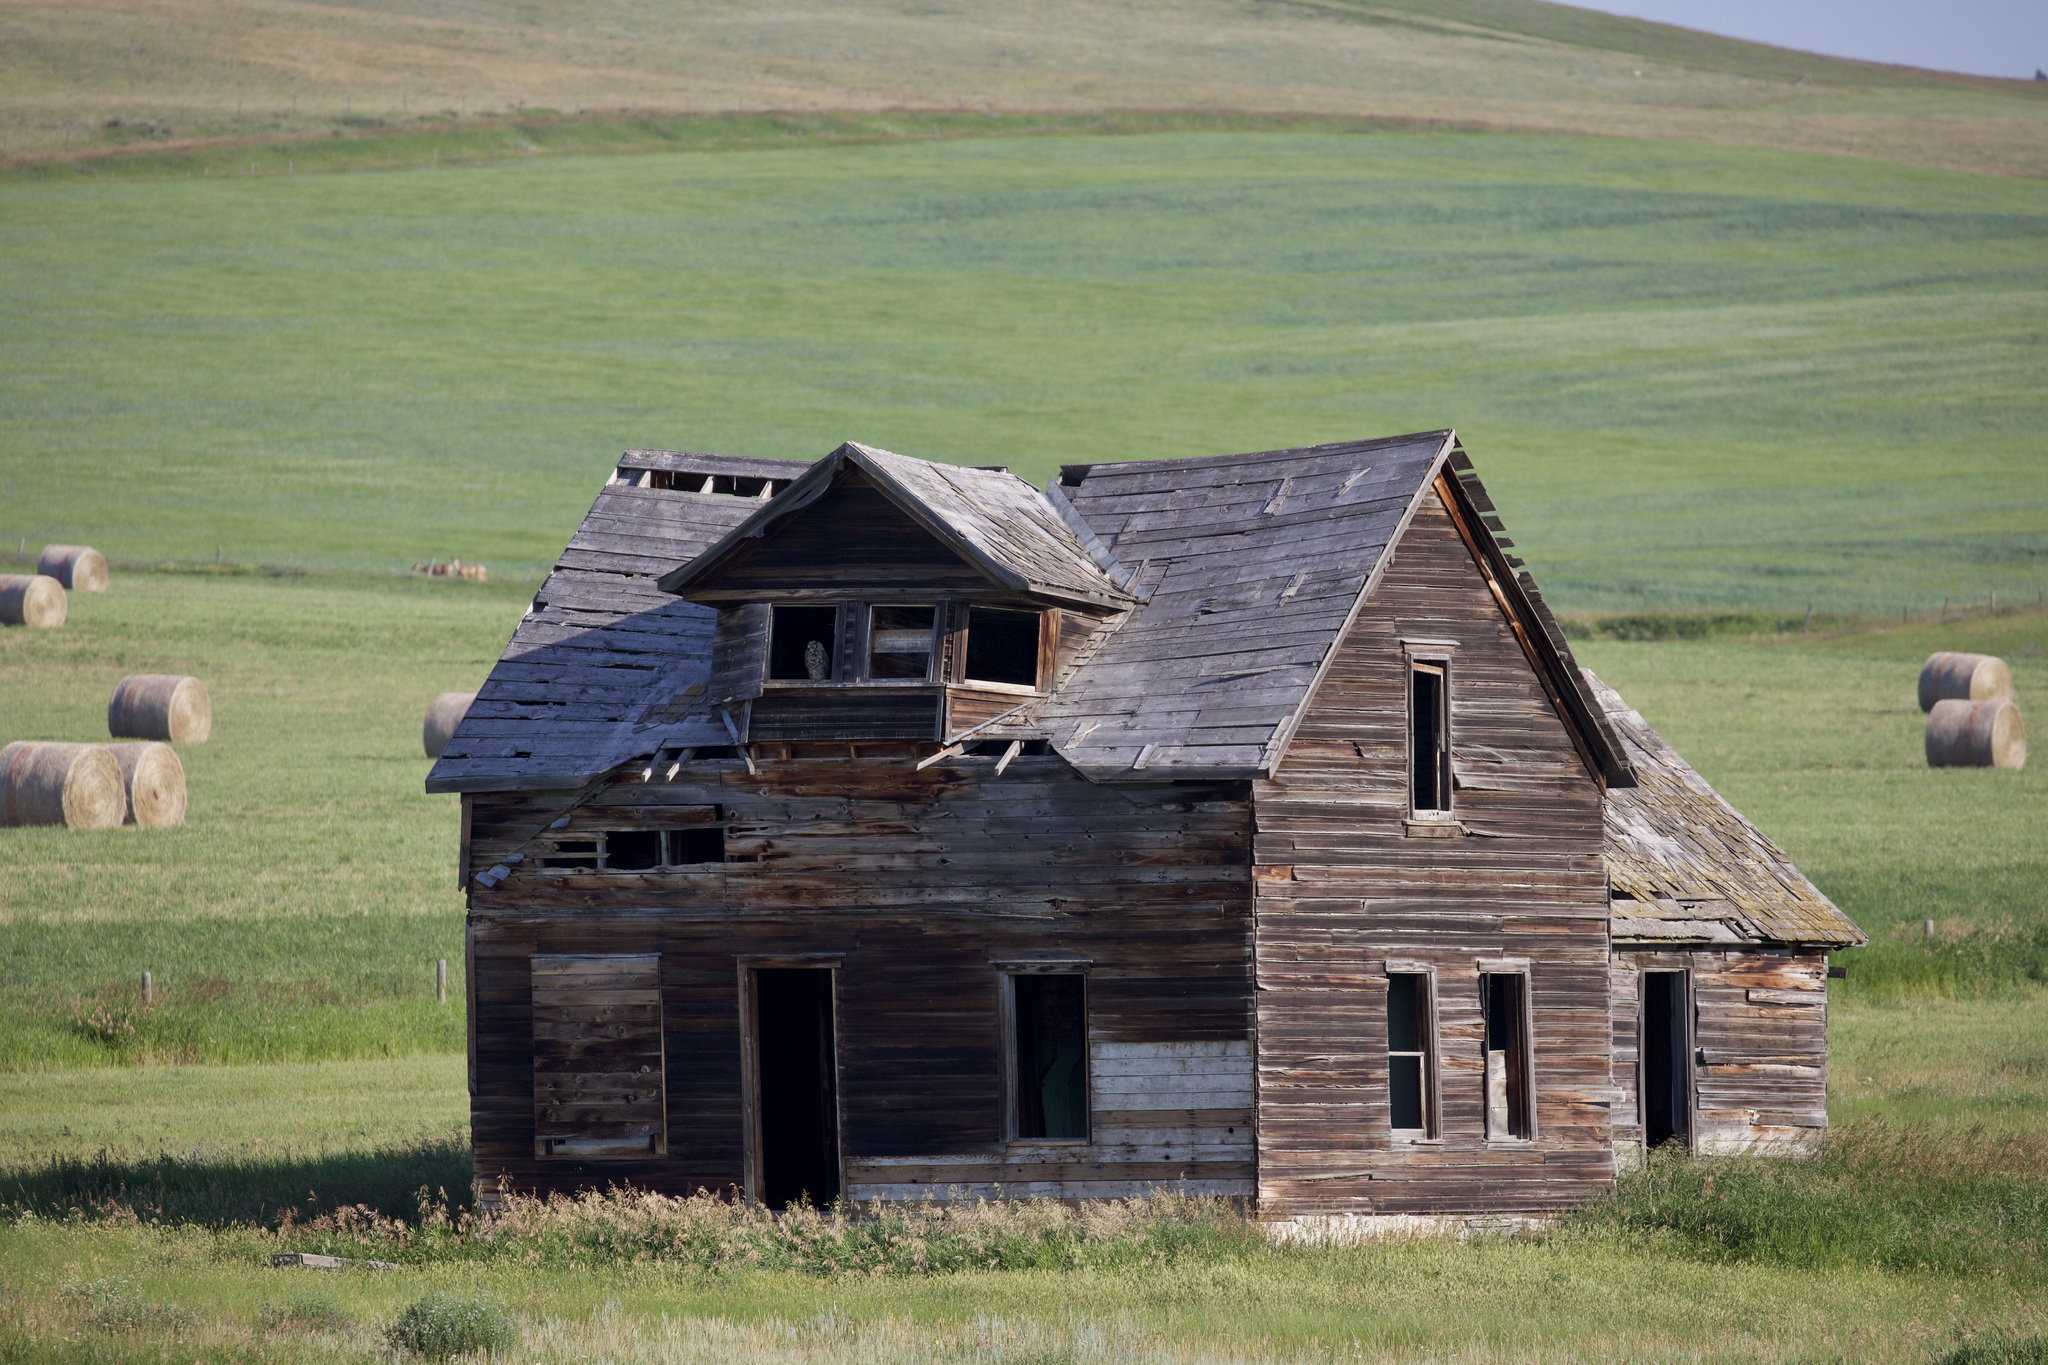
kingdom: Animalia
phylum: Chordata
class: Aves
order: Strigiformes
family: Strigidae
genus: Bubo
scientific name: Bubo virginianus
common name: Great horned owl
